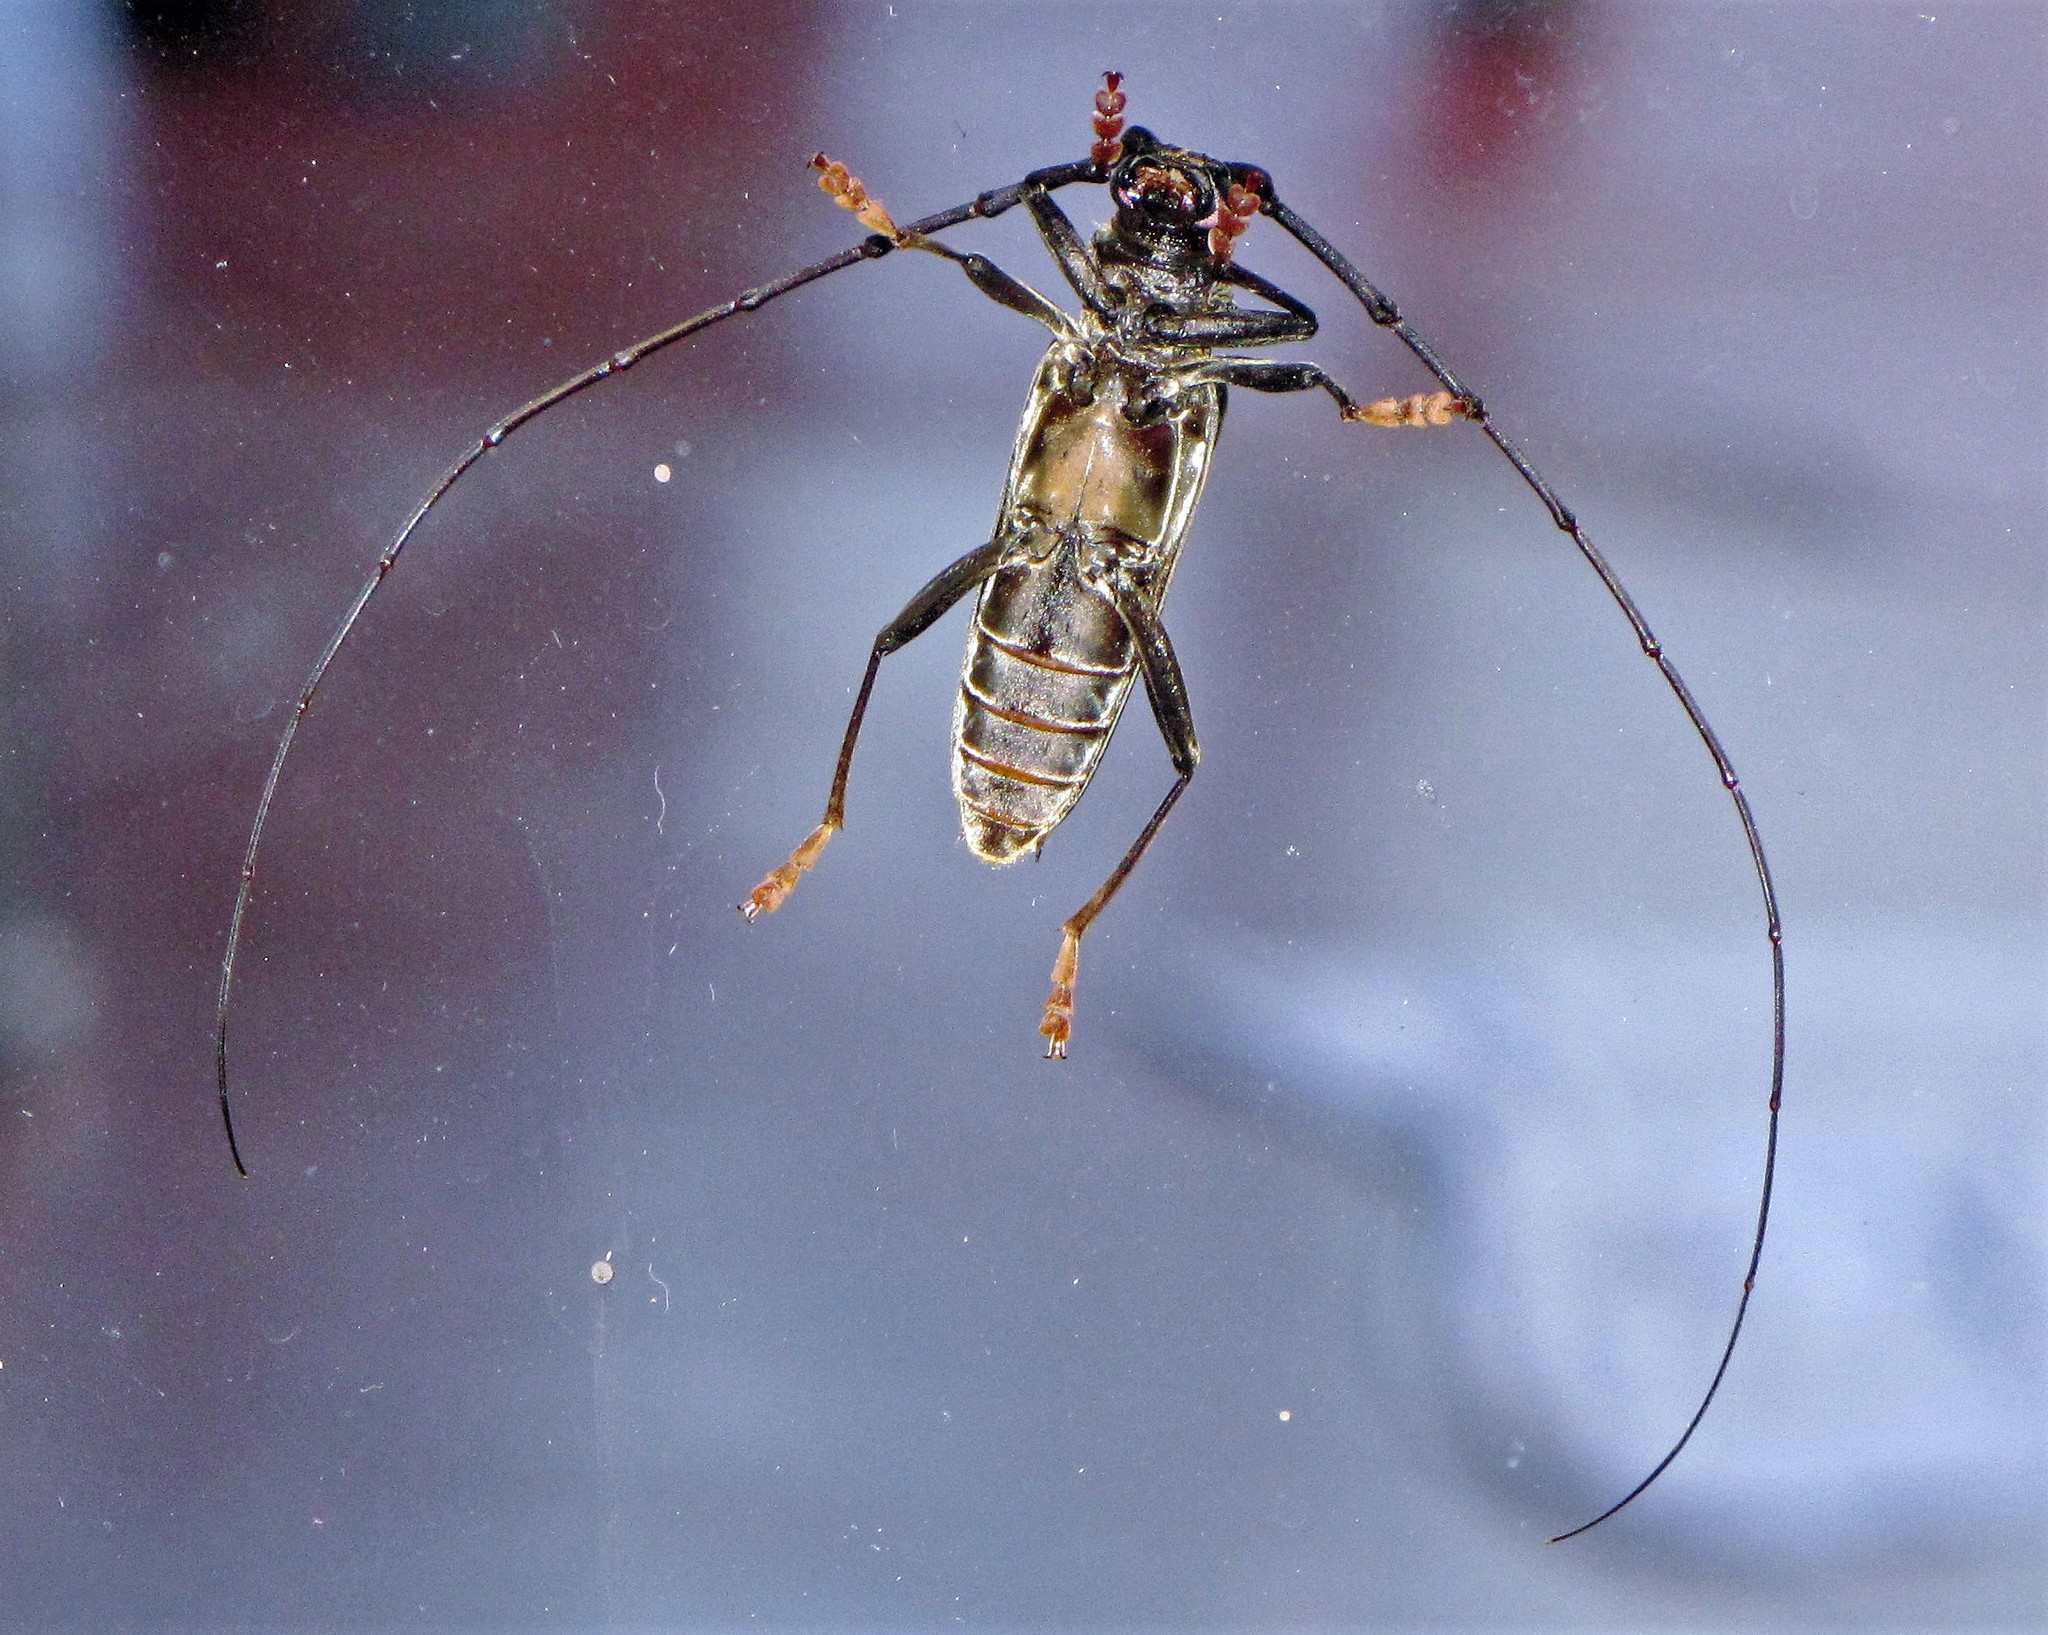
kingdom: Animalia
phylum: Arthropoda
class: Insecta
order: Coleoptera
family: Cerambycidae
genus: Juiaparus
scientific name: Juiaparus batus
